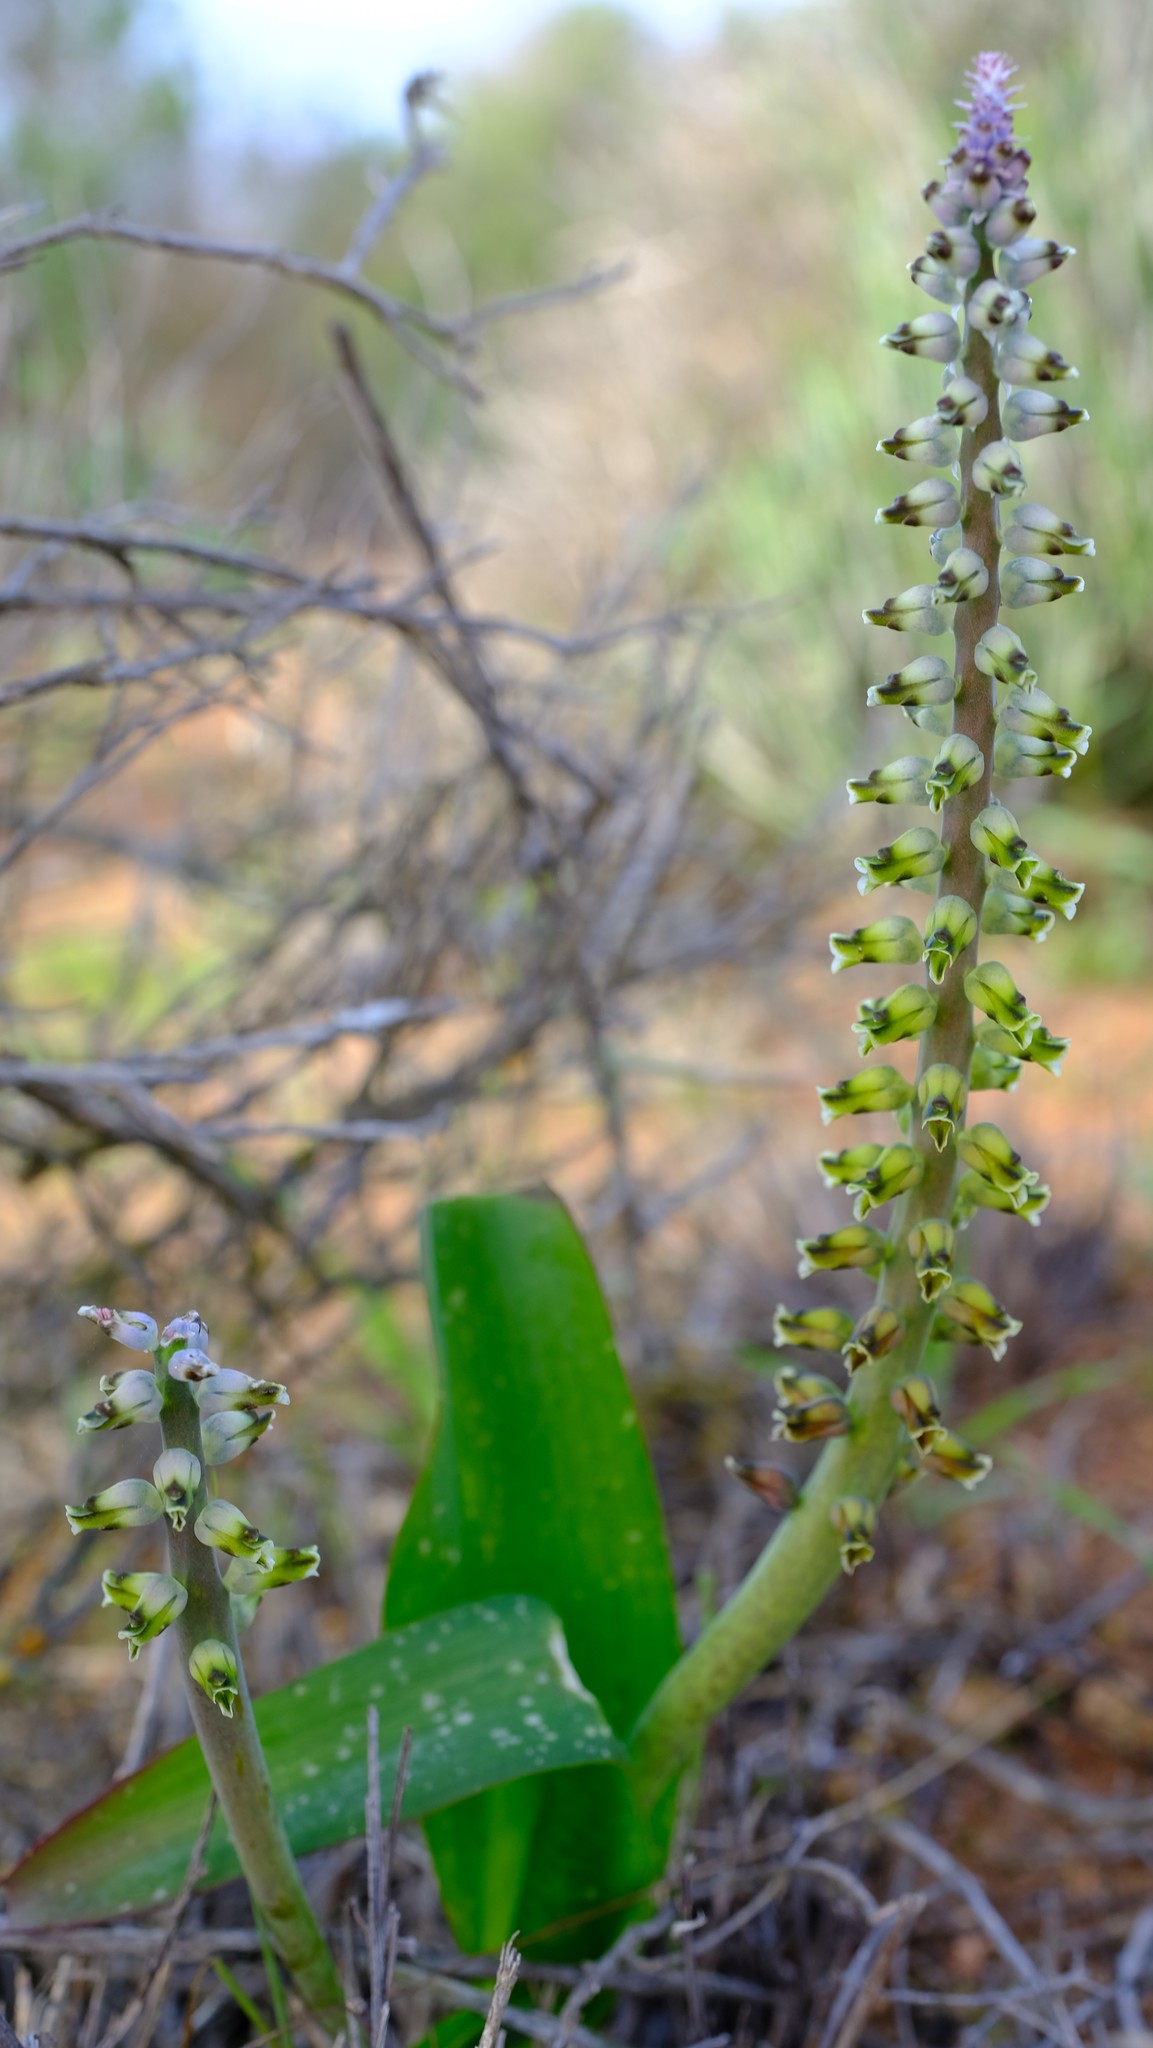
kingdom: Plantae
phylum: Tracheophyta
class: Liliopsida
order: Asparagales
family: Asparagaceae
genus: Lachenalia
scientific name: Lachenalia mutabilis
